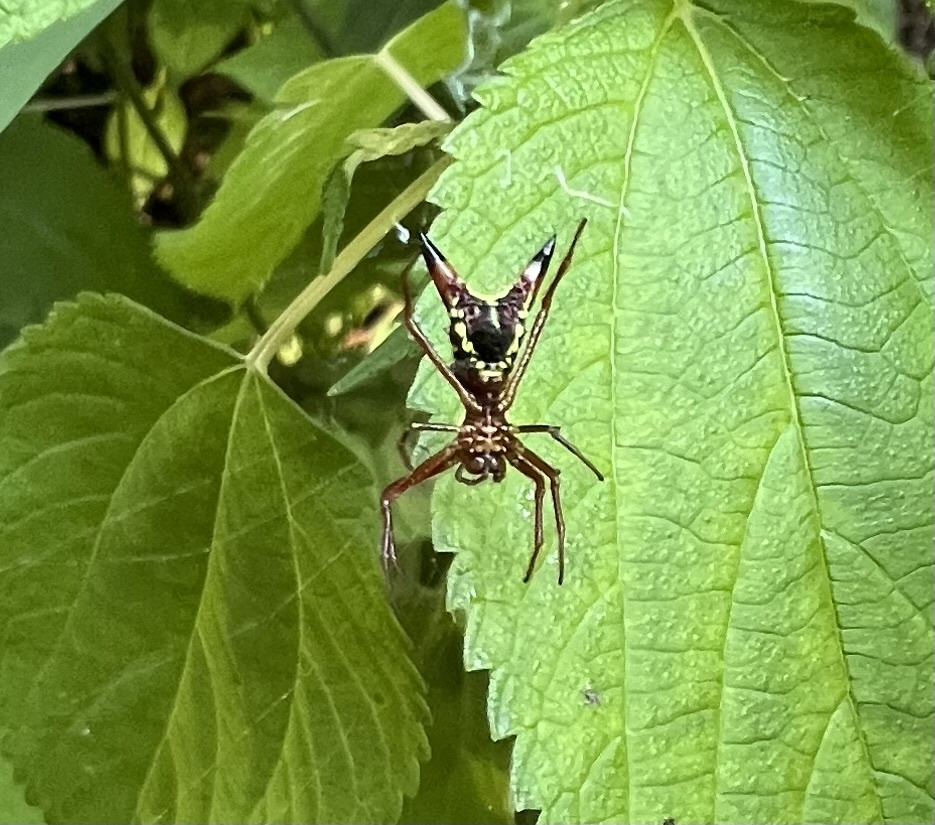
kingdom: Animalia
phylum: Arthropoda
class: Arachnida
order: Araneae
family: Araneidae
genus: Micrathena
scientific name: Micrathena sagittata
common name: Orb weavers
